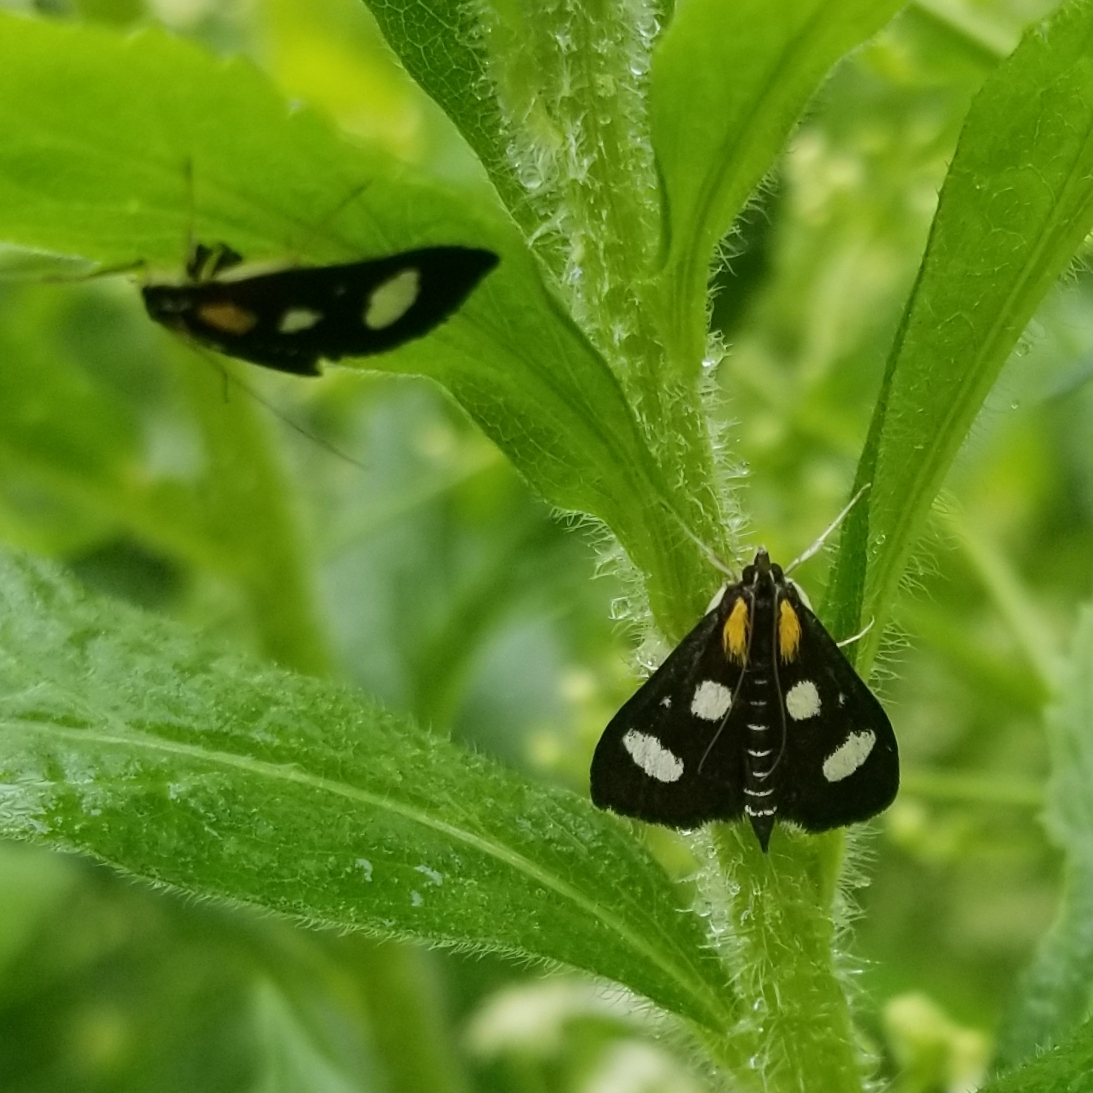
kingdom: Animalia
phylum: Arthropoda
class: Insecta
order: Lepidoptera
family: Crambidae
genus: Anania
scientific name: Anania funebris
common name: White-spotted sable moth
